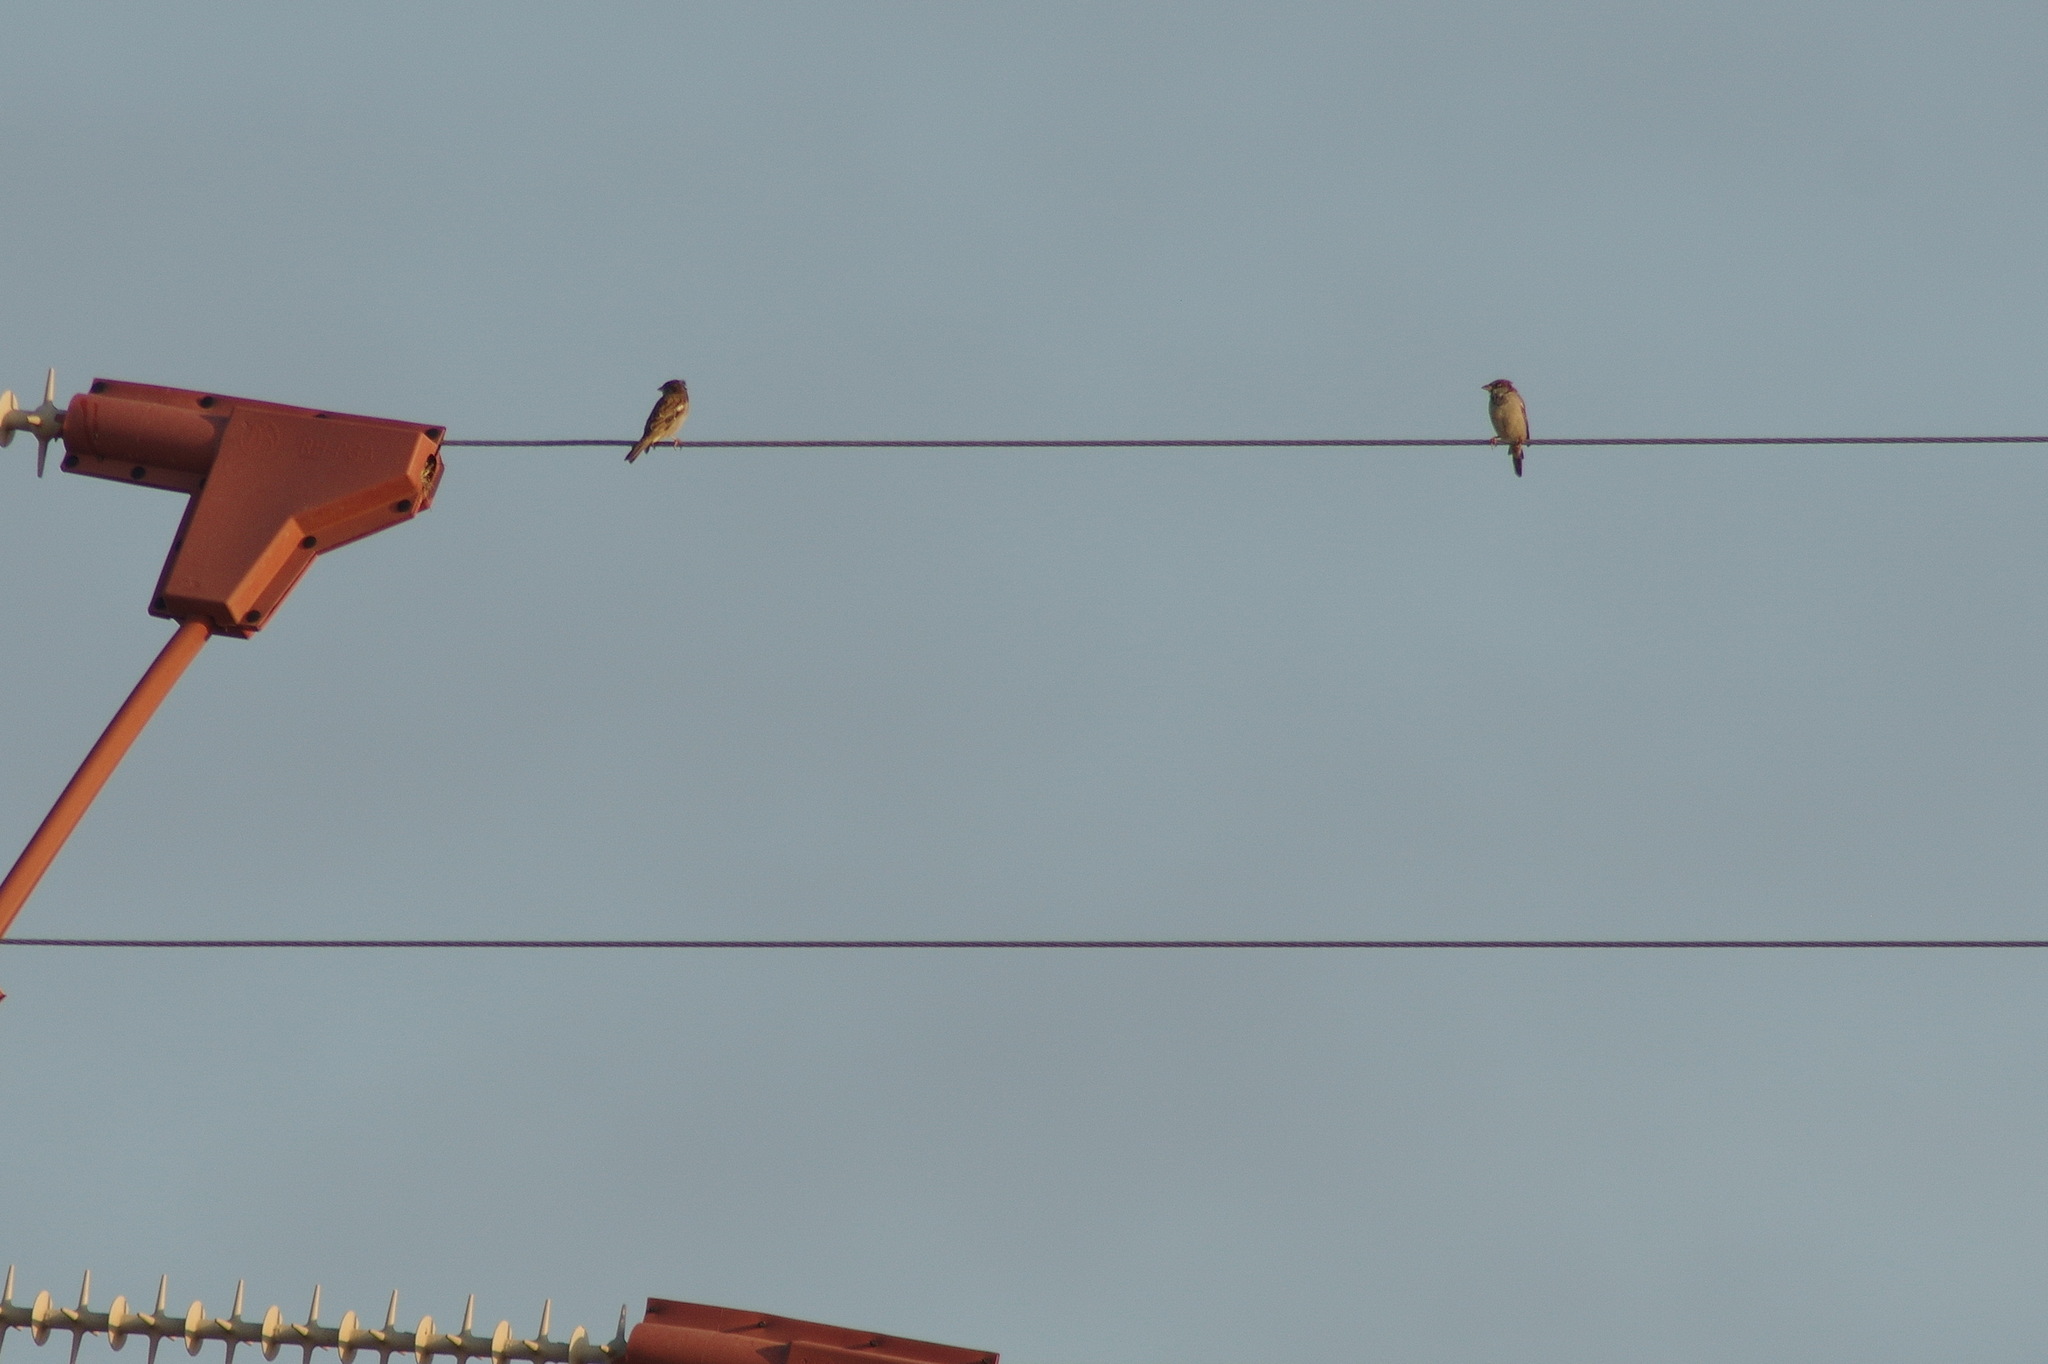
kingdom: Animalia
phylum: Chordata
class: Aves
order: Passeriformes
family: Passeridae
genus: Passer
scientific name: Passer domesticus
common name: House sparrow
